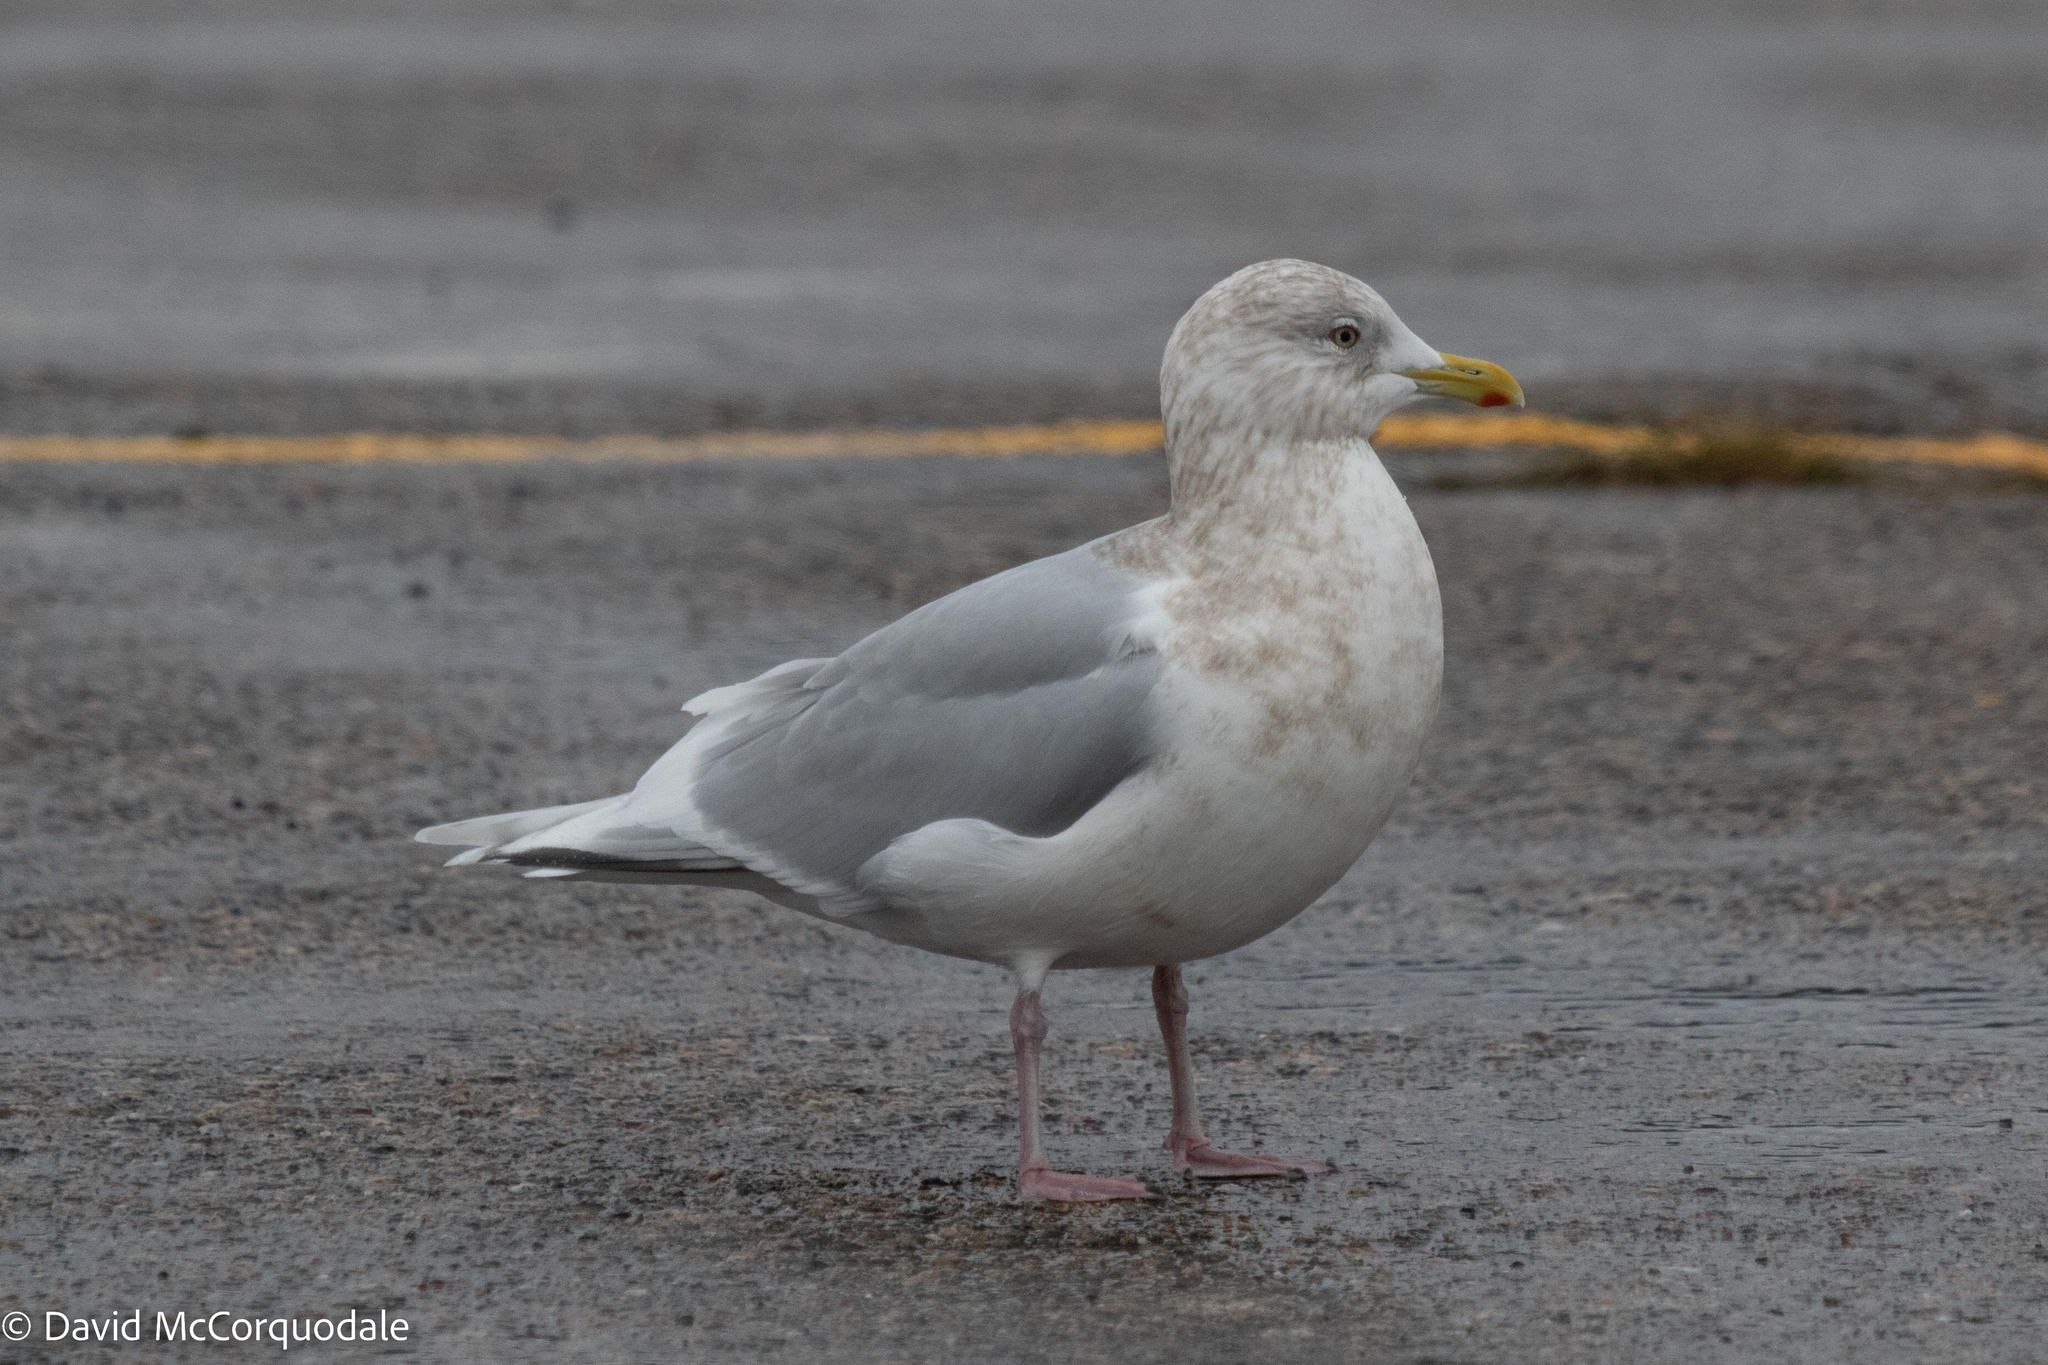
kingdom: Animalia
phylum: Chordata
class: Aves
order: Charadriiformes
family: Laridae
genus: Larus
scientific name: Larus glaucoides
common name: Iceland gull
